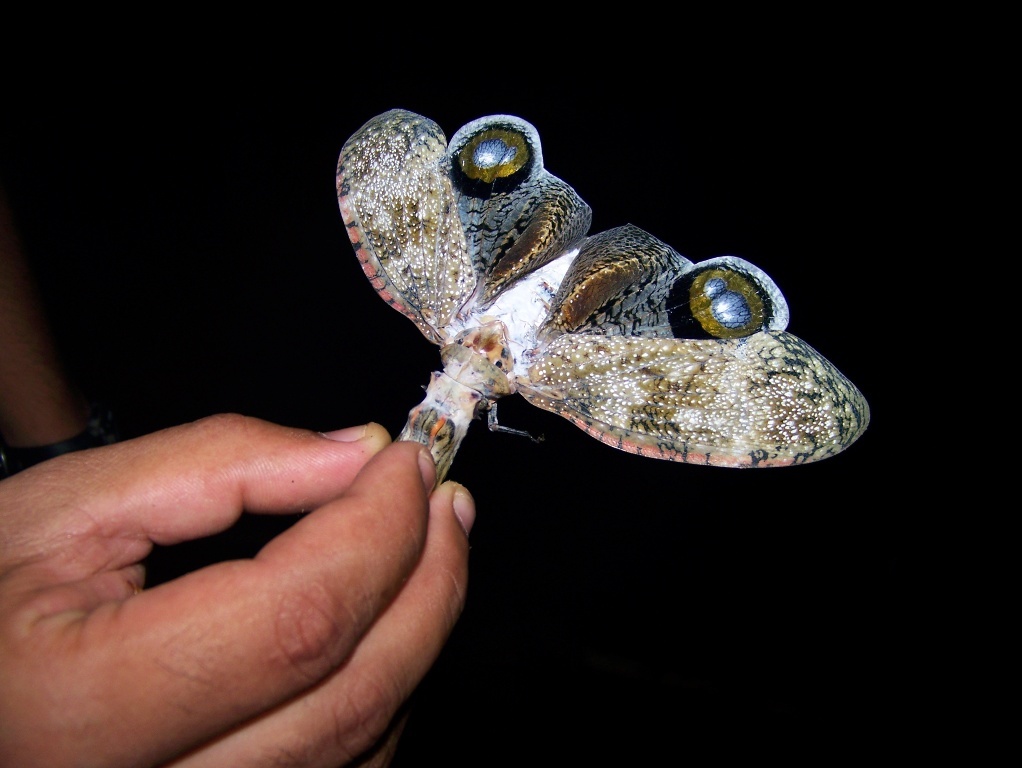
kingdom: Animalia
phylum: Arthropoda
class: Insecta
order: Hemiptera
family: Fulgoridae
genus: Fulgora
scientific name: Fulgora laternaria
